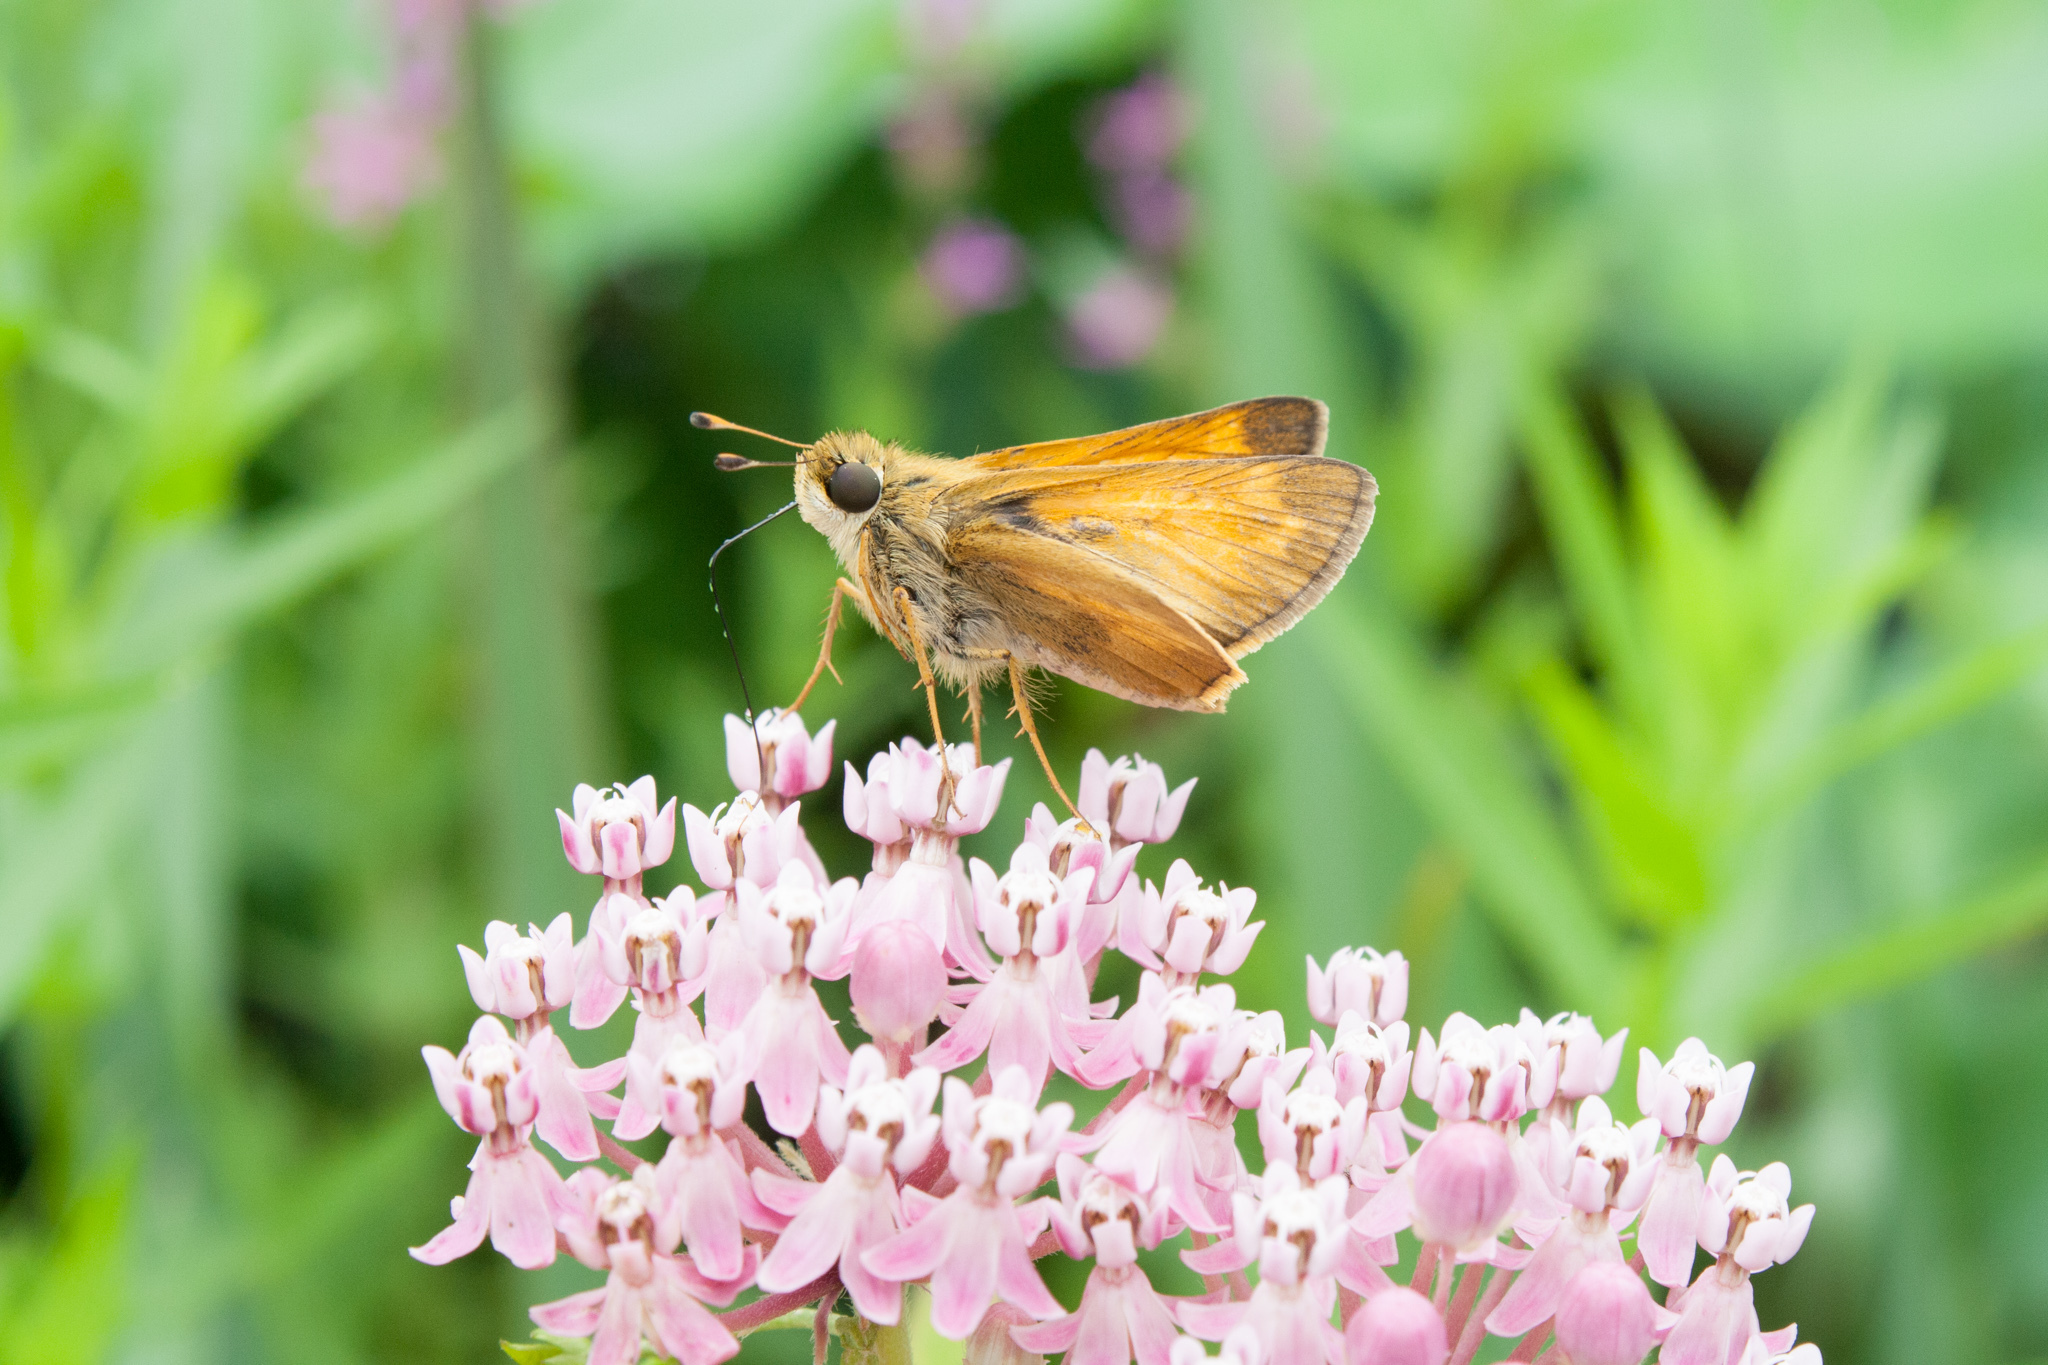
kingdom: Animalia
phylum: Arthropoda
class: Insecta
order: Lepidoptera
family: Hesperiidae
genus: Atalopedes
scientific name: Atalopedes
